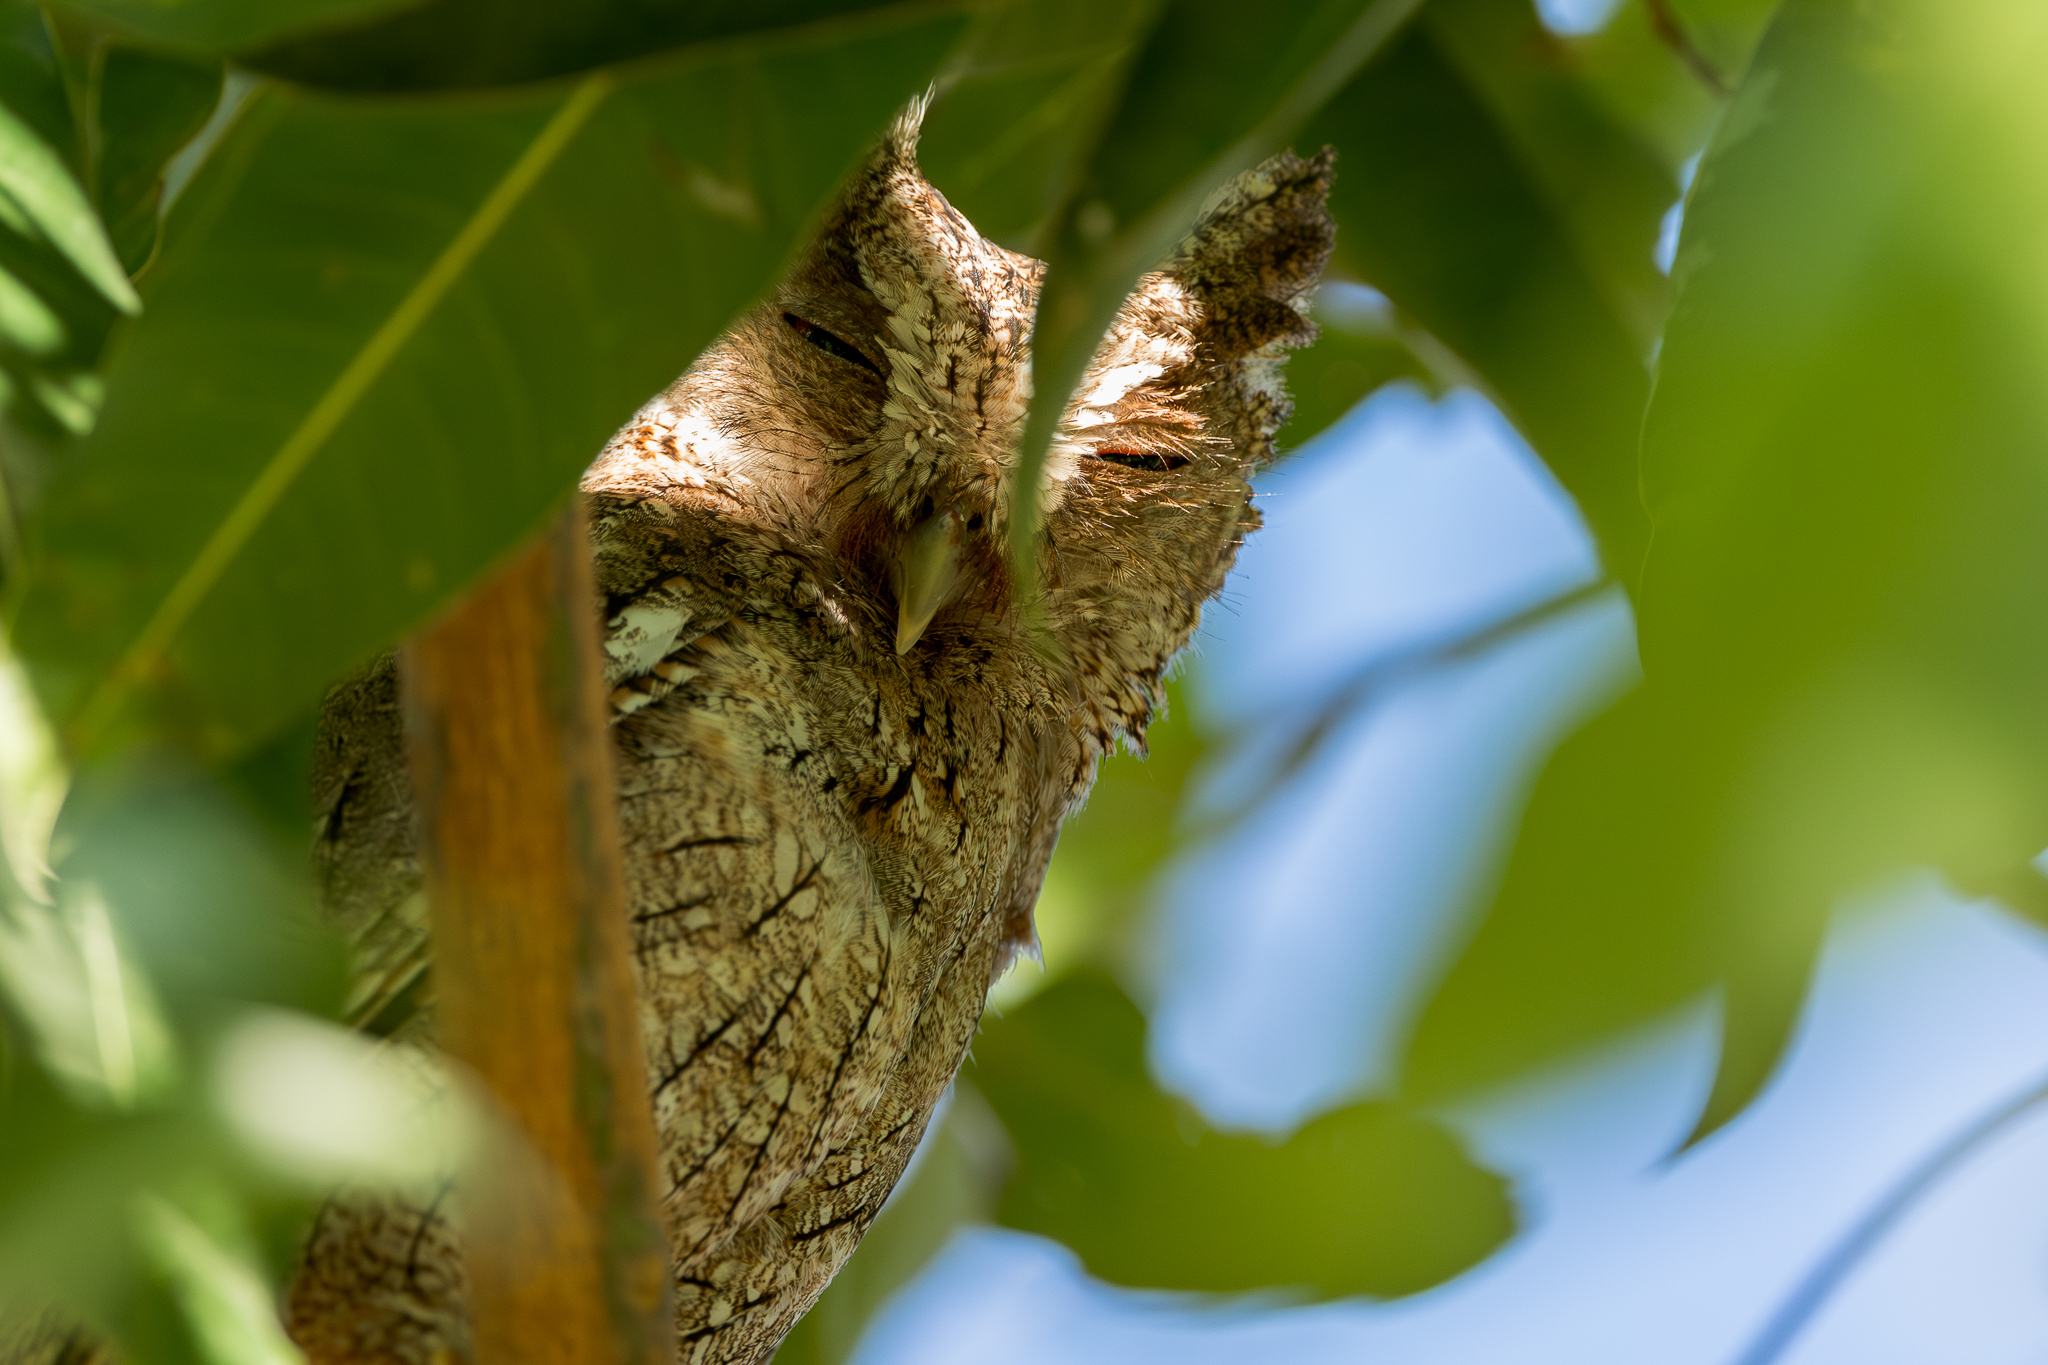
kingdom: Animalia
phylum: Chordata
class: Aves
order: Strigiformes
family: Strigidae
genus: Megascops
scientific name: Megascops cooperi
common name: Pacific screech-owl
